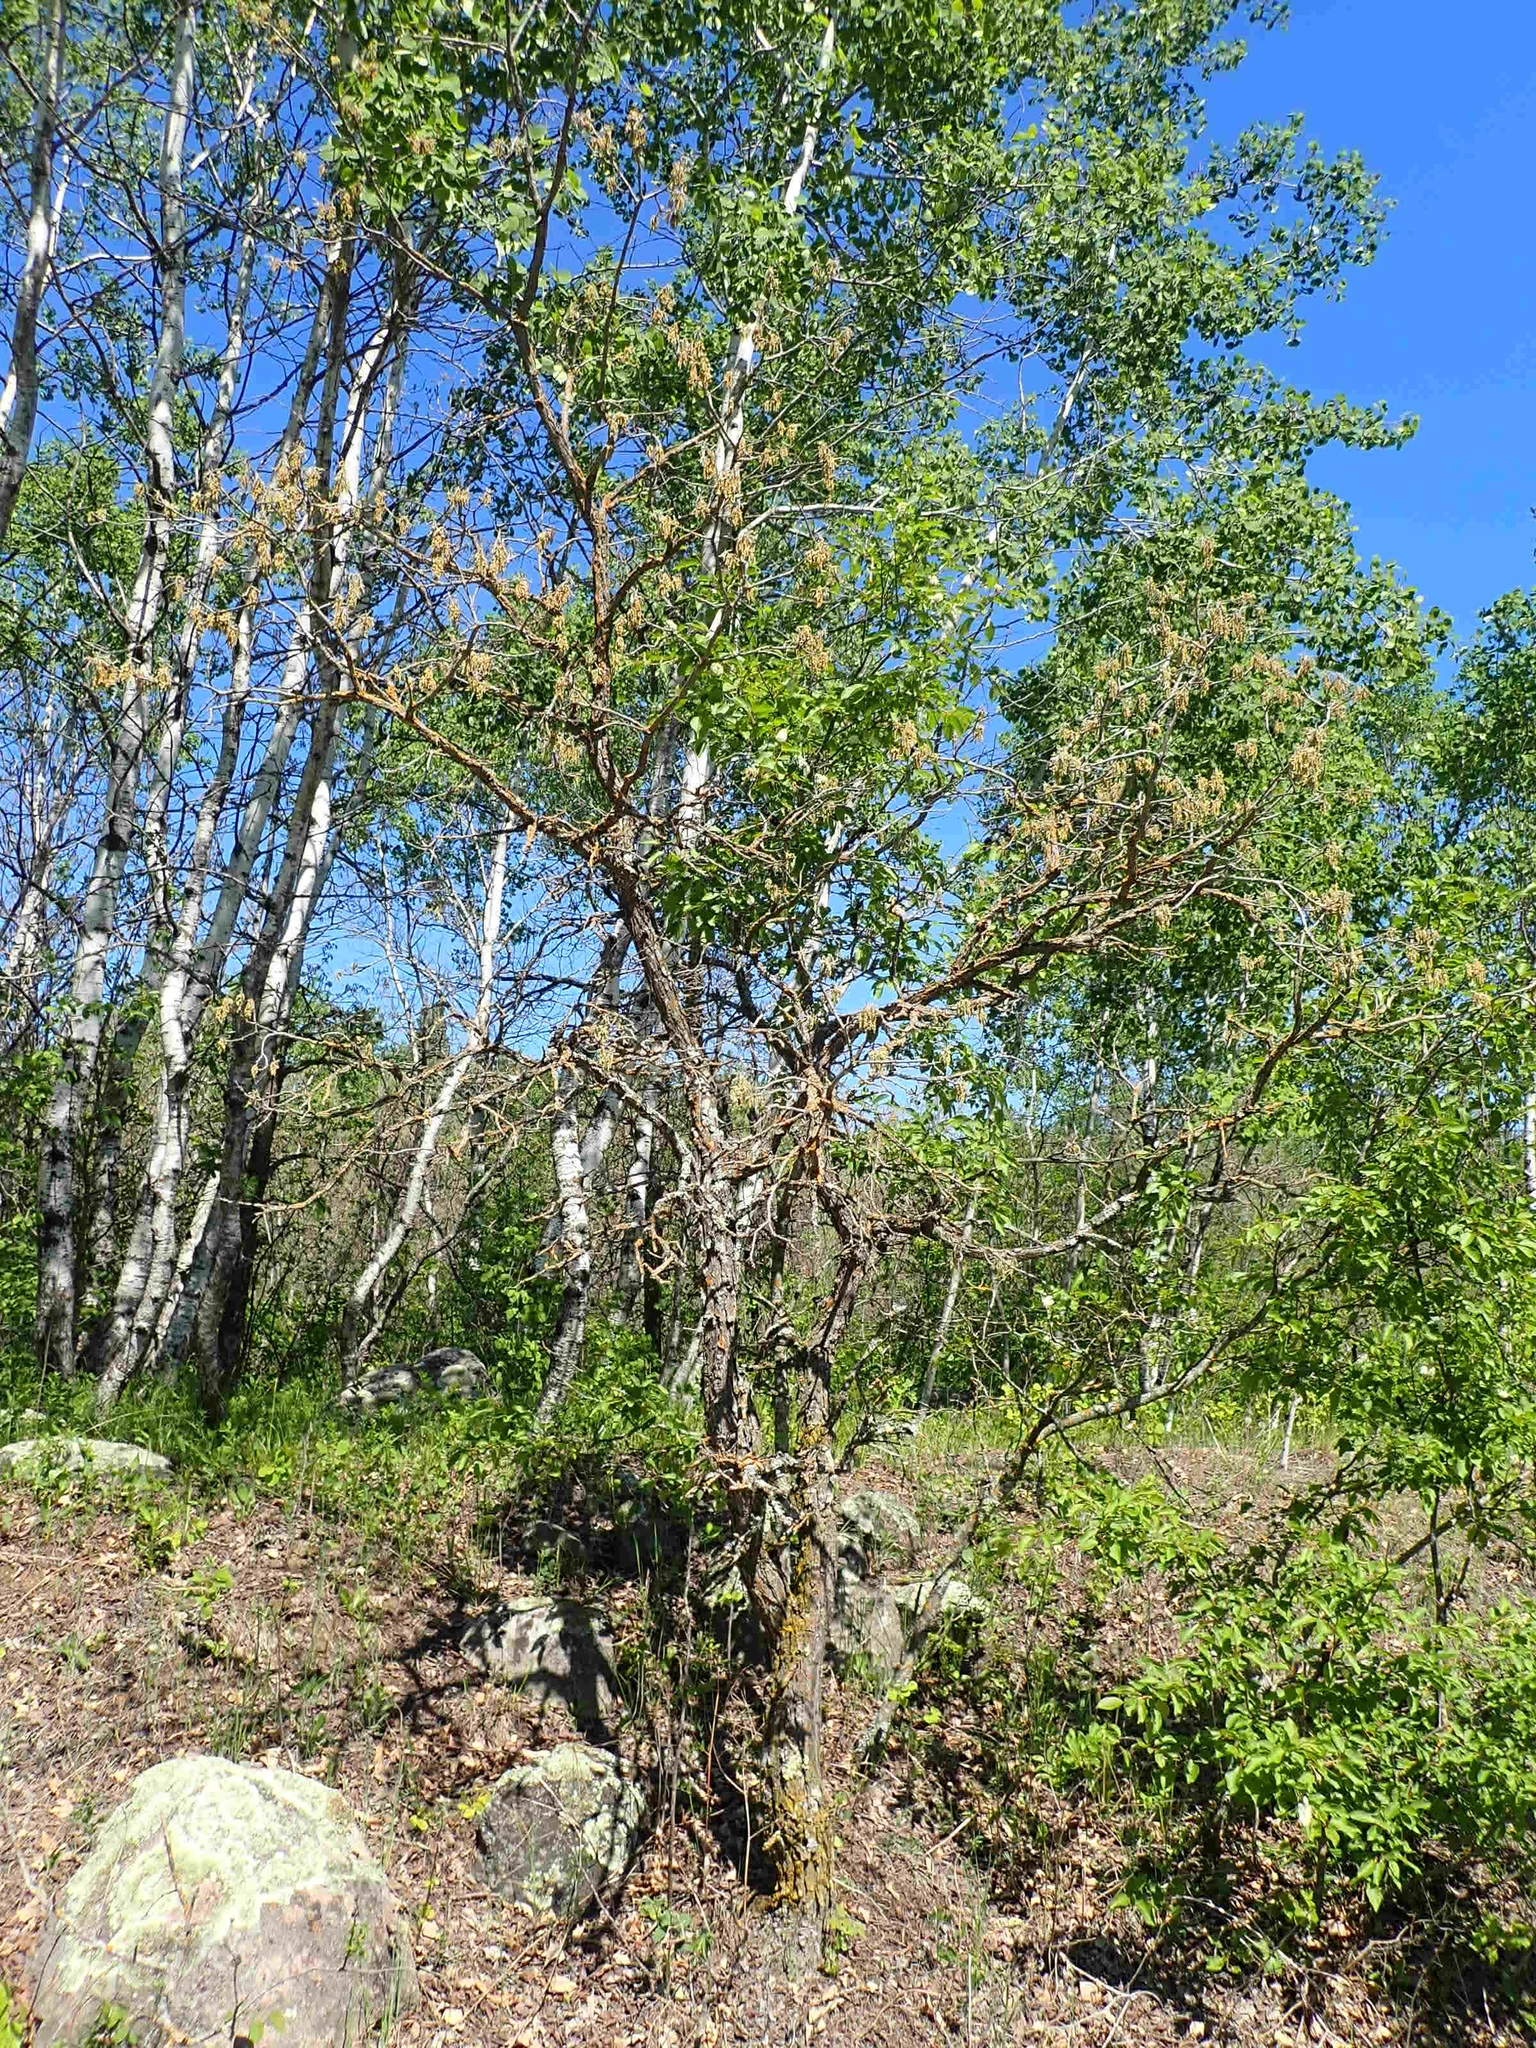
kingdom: Plantae
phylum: Tracheophyta
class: Magnoliopsida
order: Fagales
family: Fagaceae
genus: Quercus
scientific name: Quercus macrocarpa
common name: Bur oak
